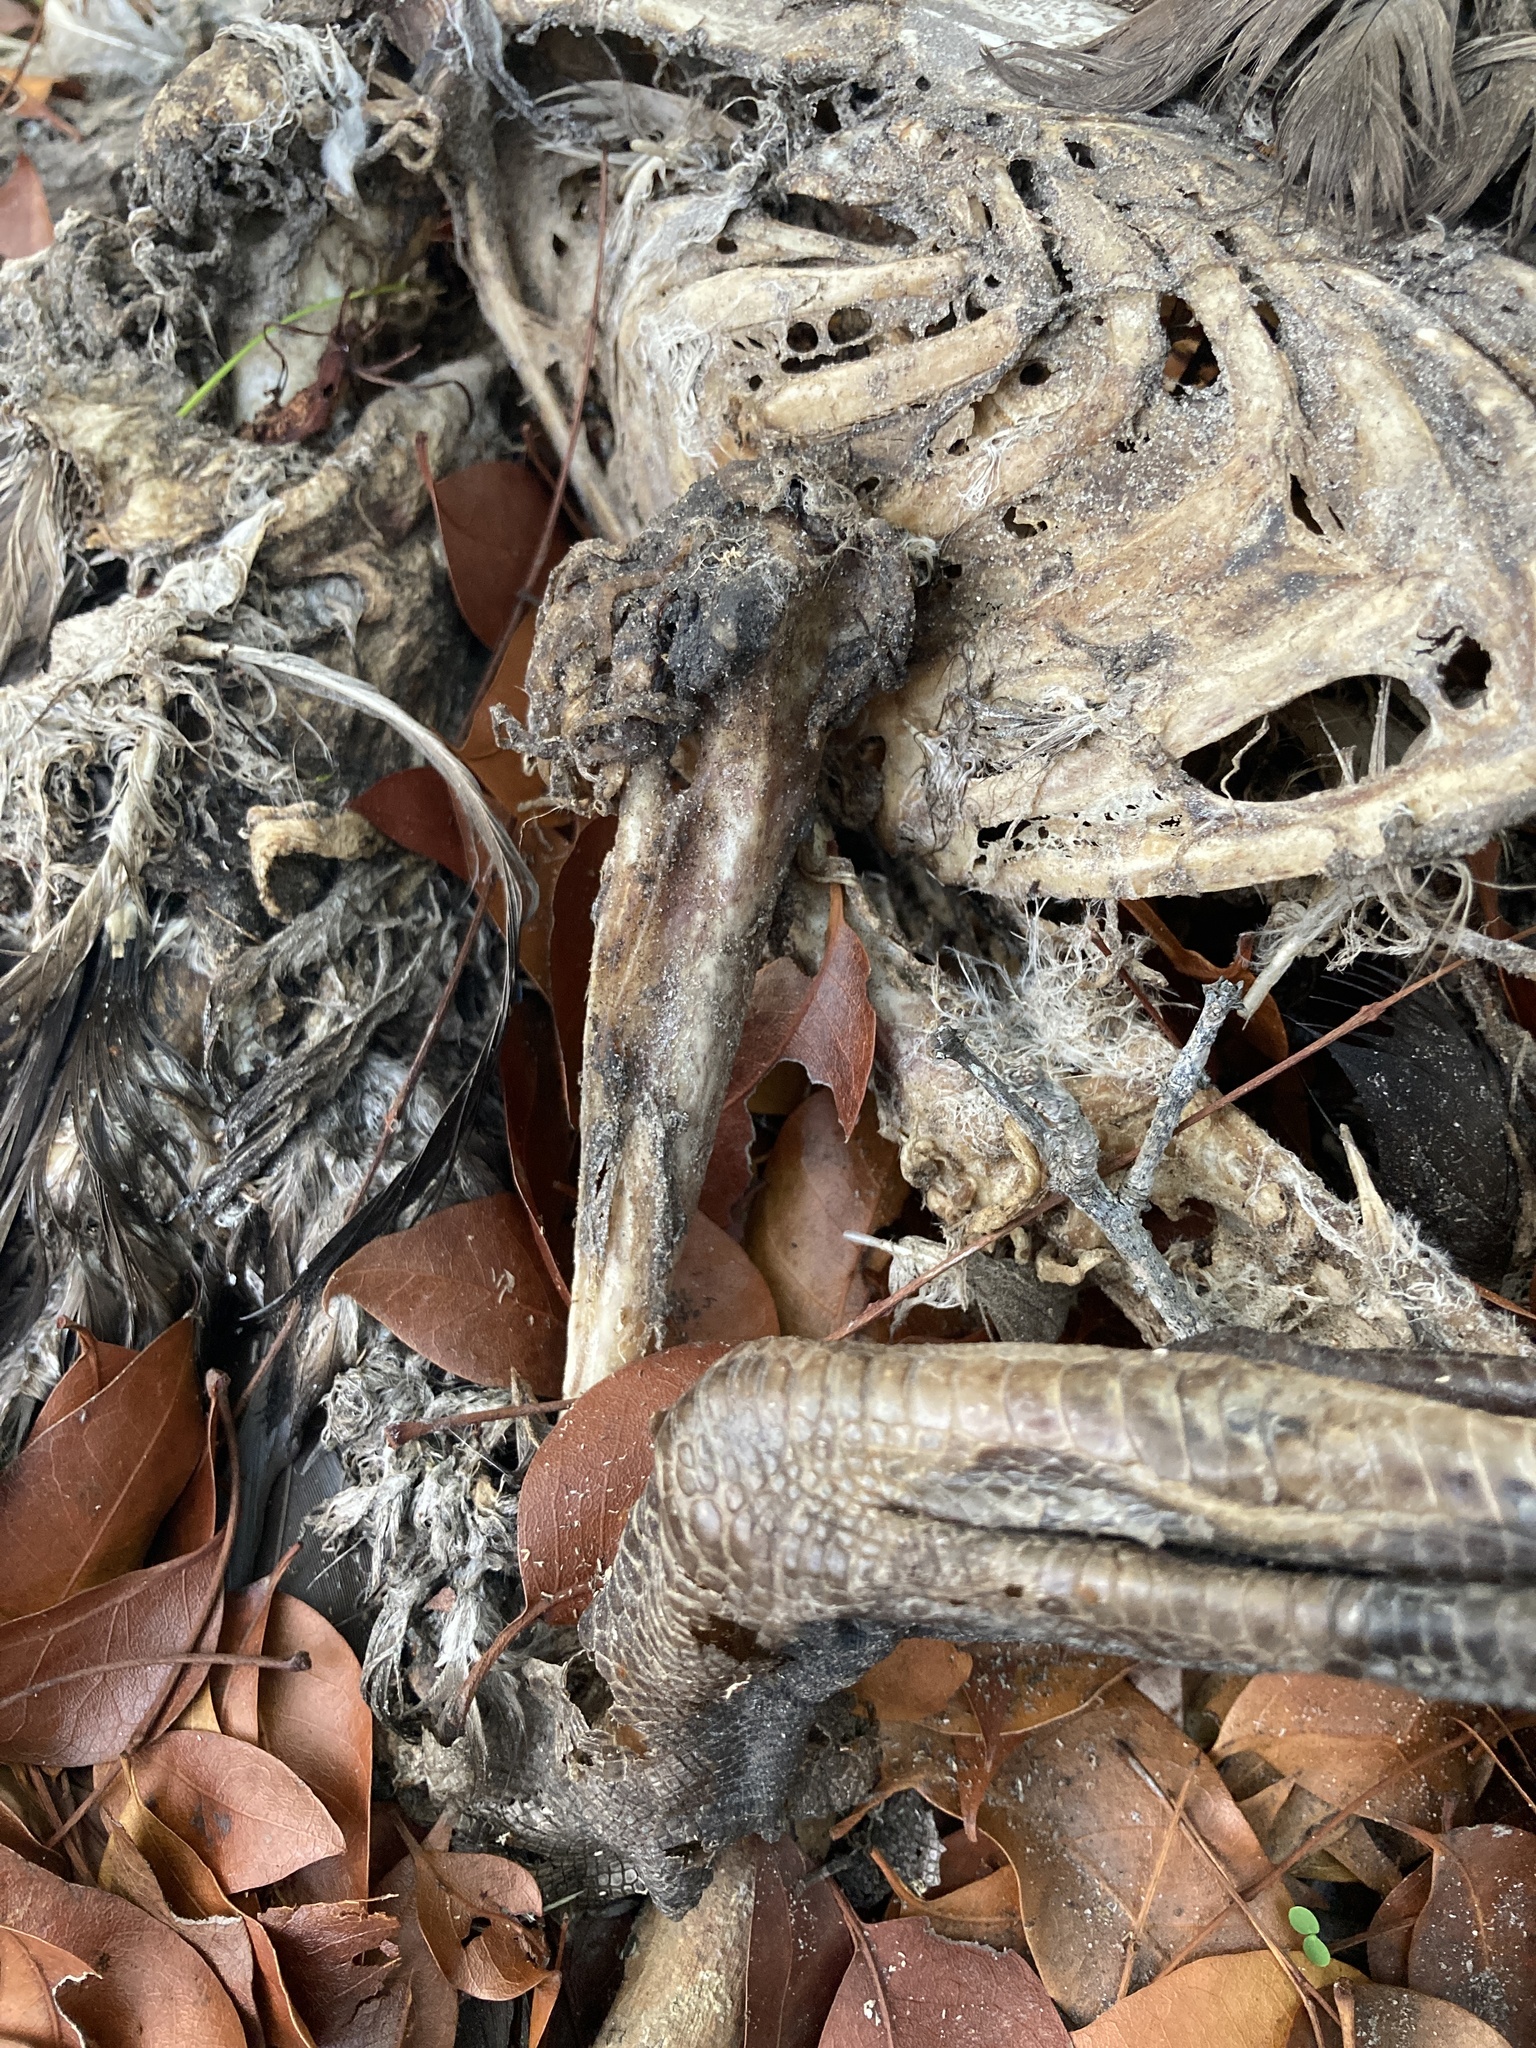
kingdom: Animalia
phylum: Chordata
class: Aves
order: Anseriformes
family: Anatidae
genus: Cairina
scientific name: Cairina moschata
